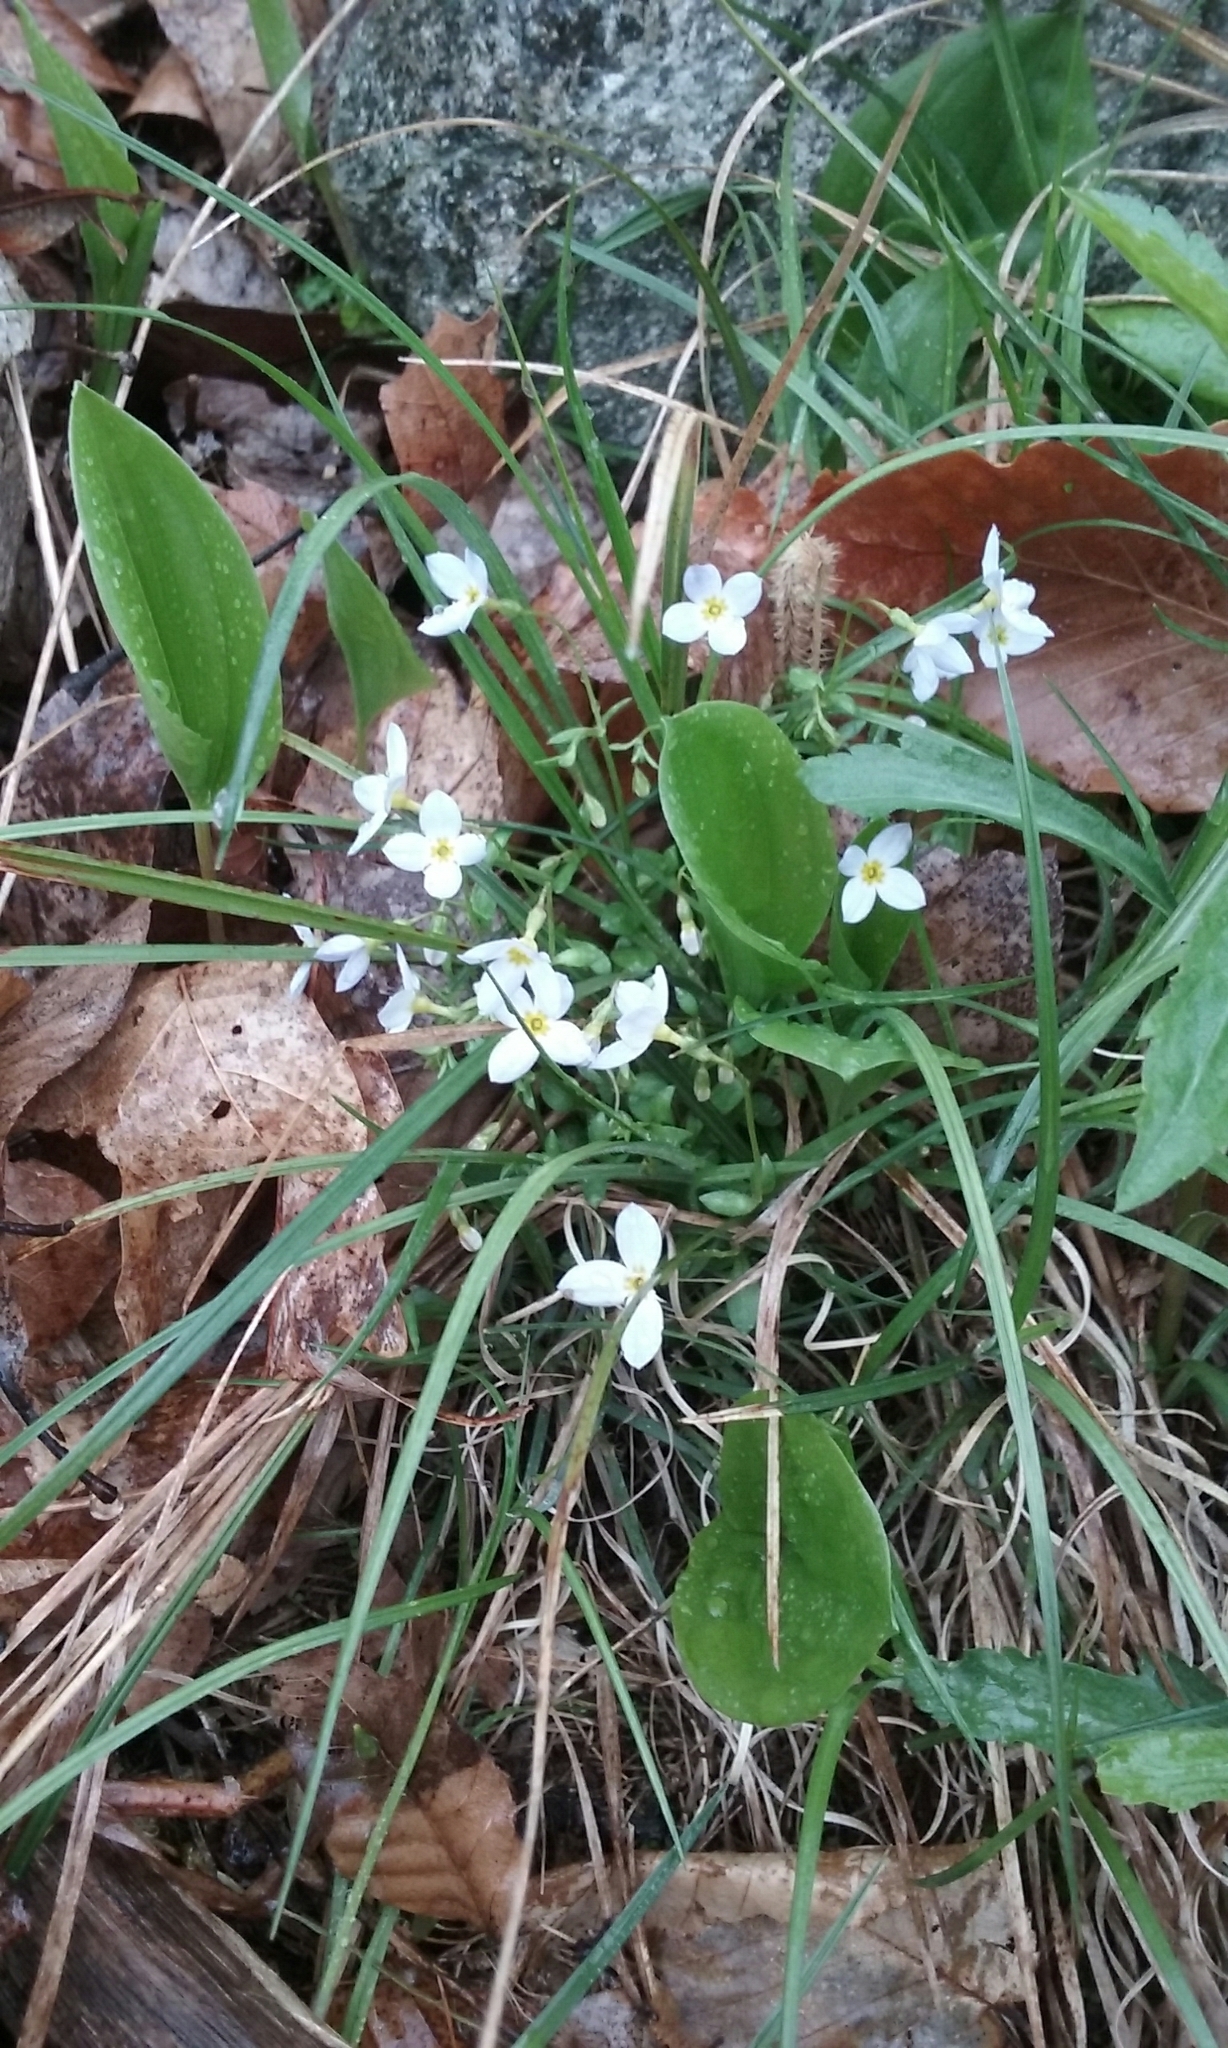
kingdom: Plantae
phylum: Tracheophyta
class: Magnoliopsida
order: Gentianales
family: Rubiaceae
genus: Houstonia
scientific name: Houstonia caerulea
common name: Bluets
